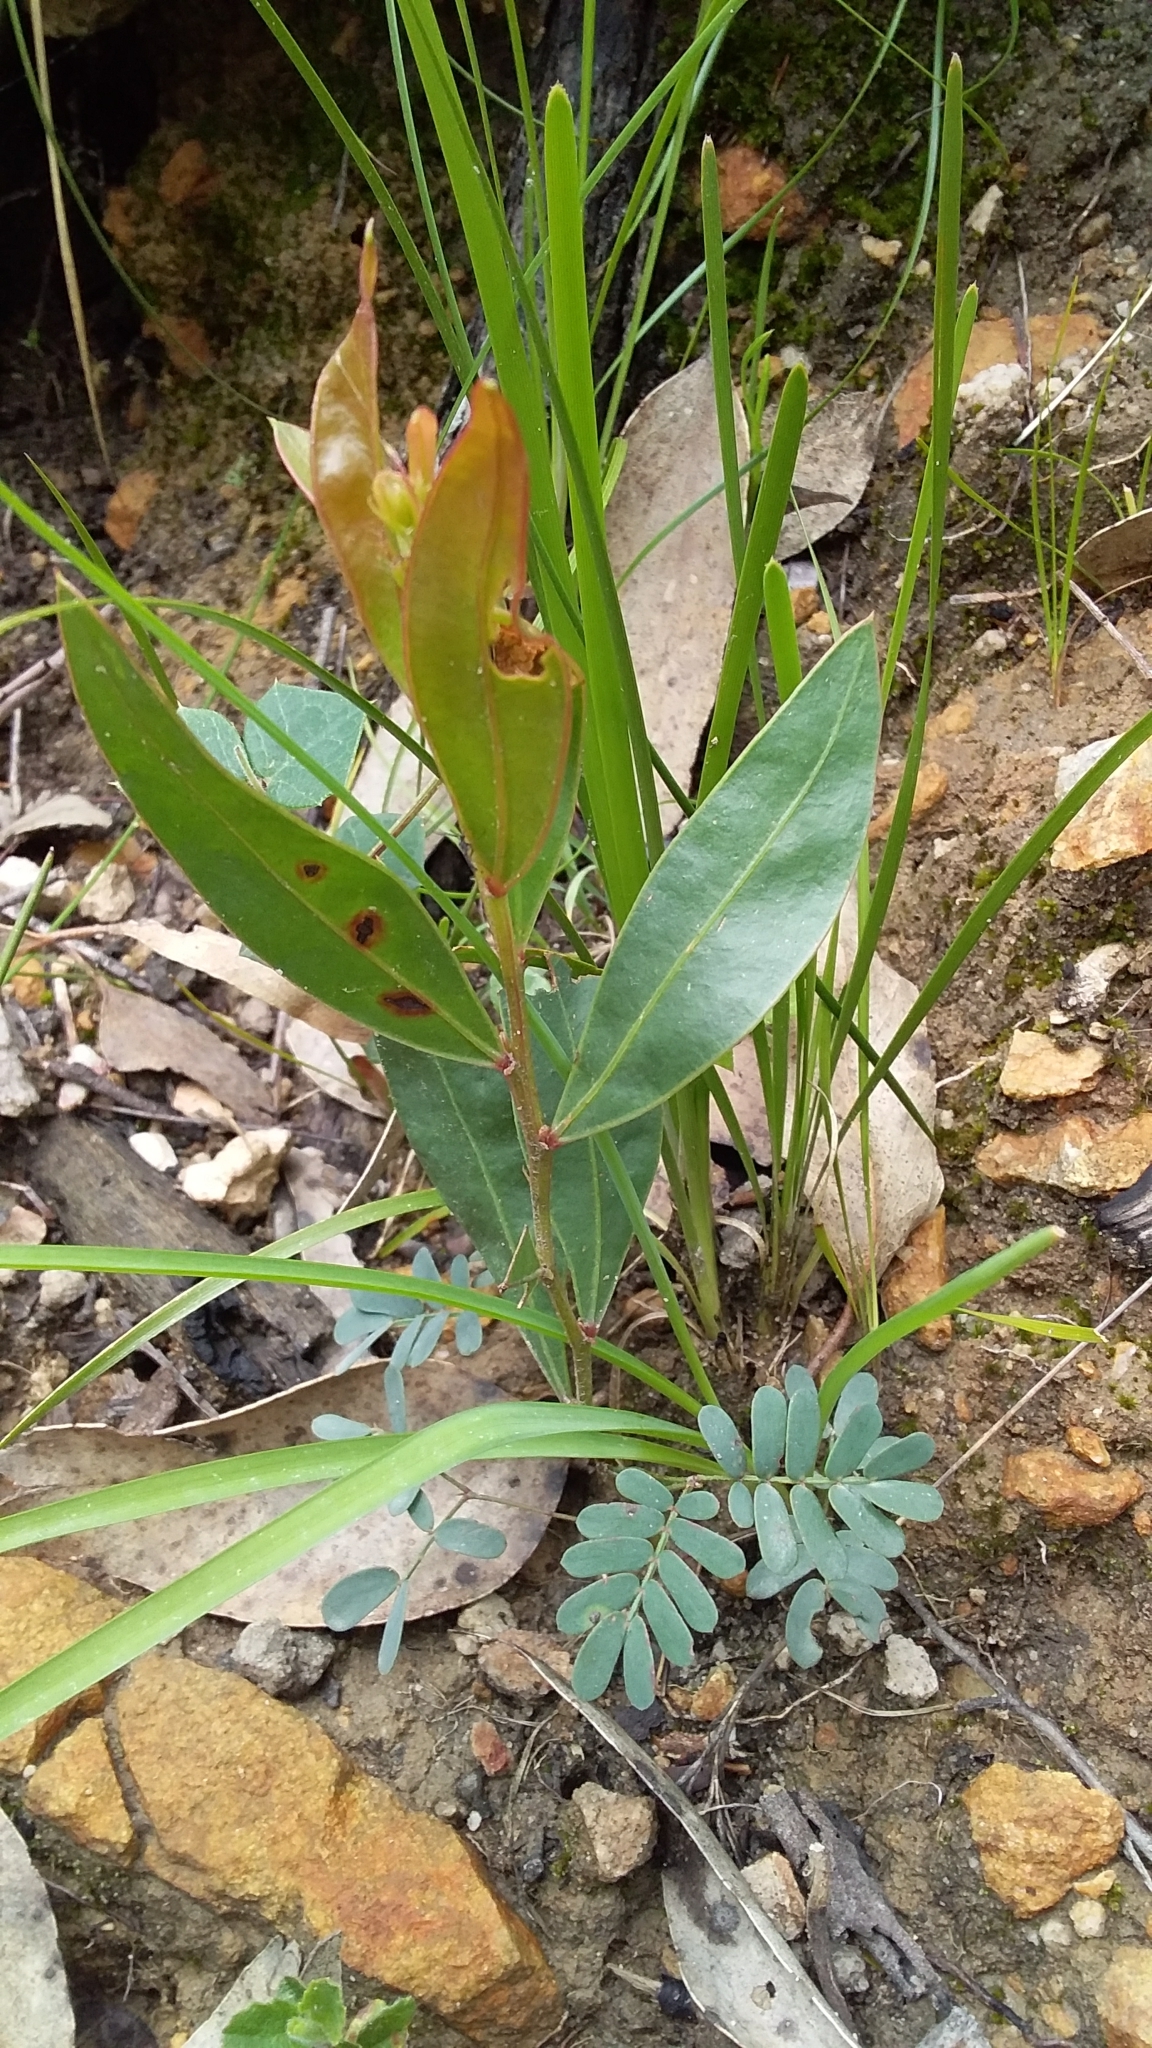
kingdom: Plantae
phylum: Tracheophyta
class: Magnoliopsida
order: Fabales
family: Fabaceae
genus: Acacia
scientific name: Acacia myrtifolia
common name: Myrtle wattle
